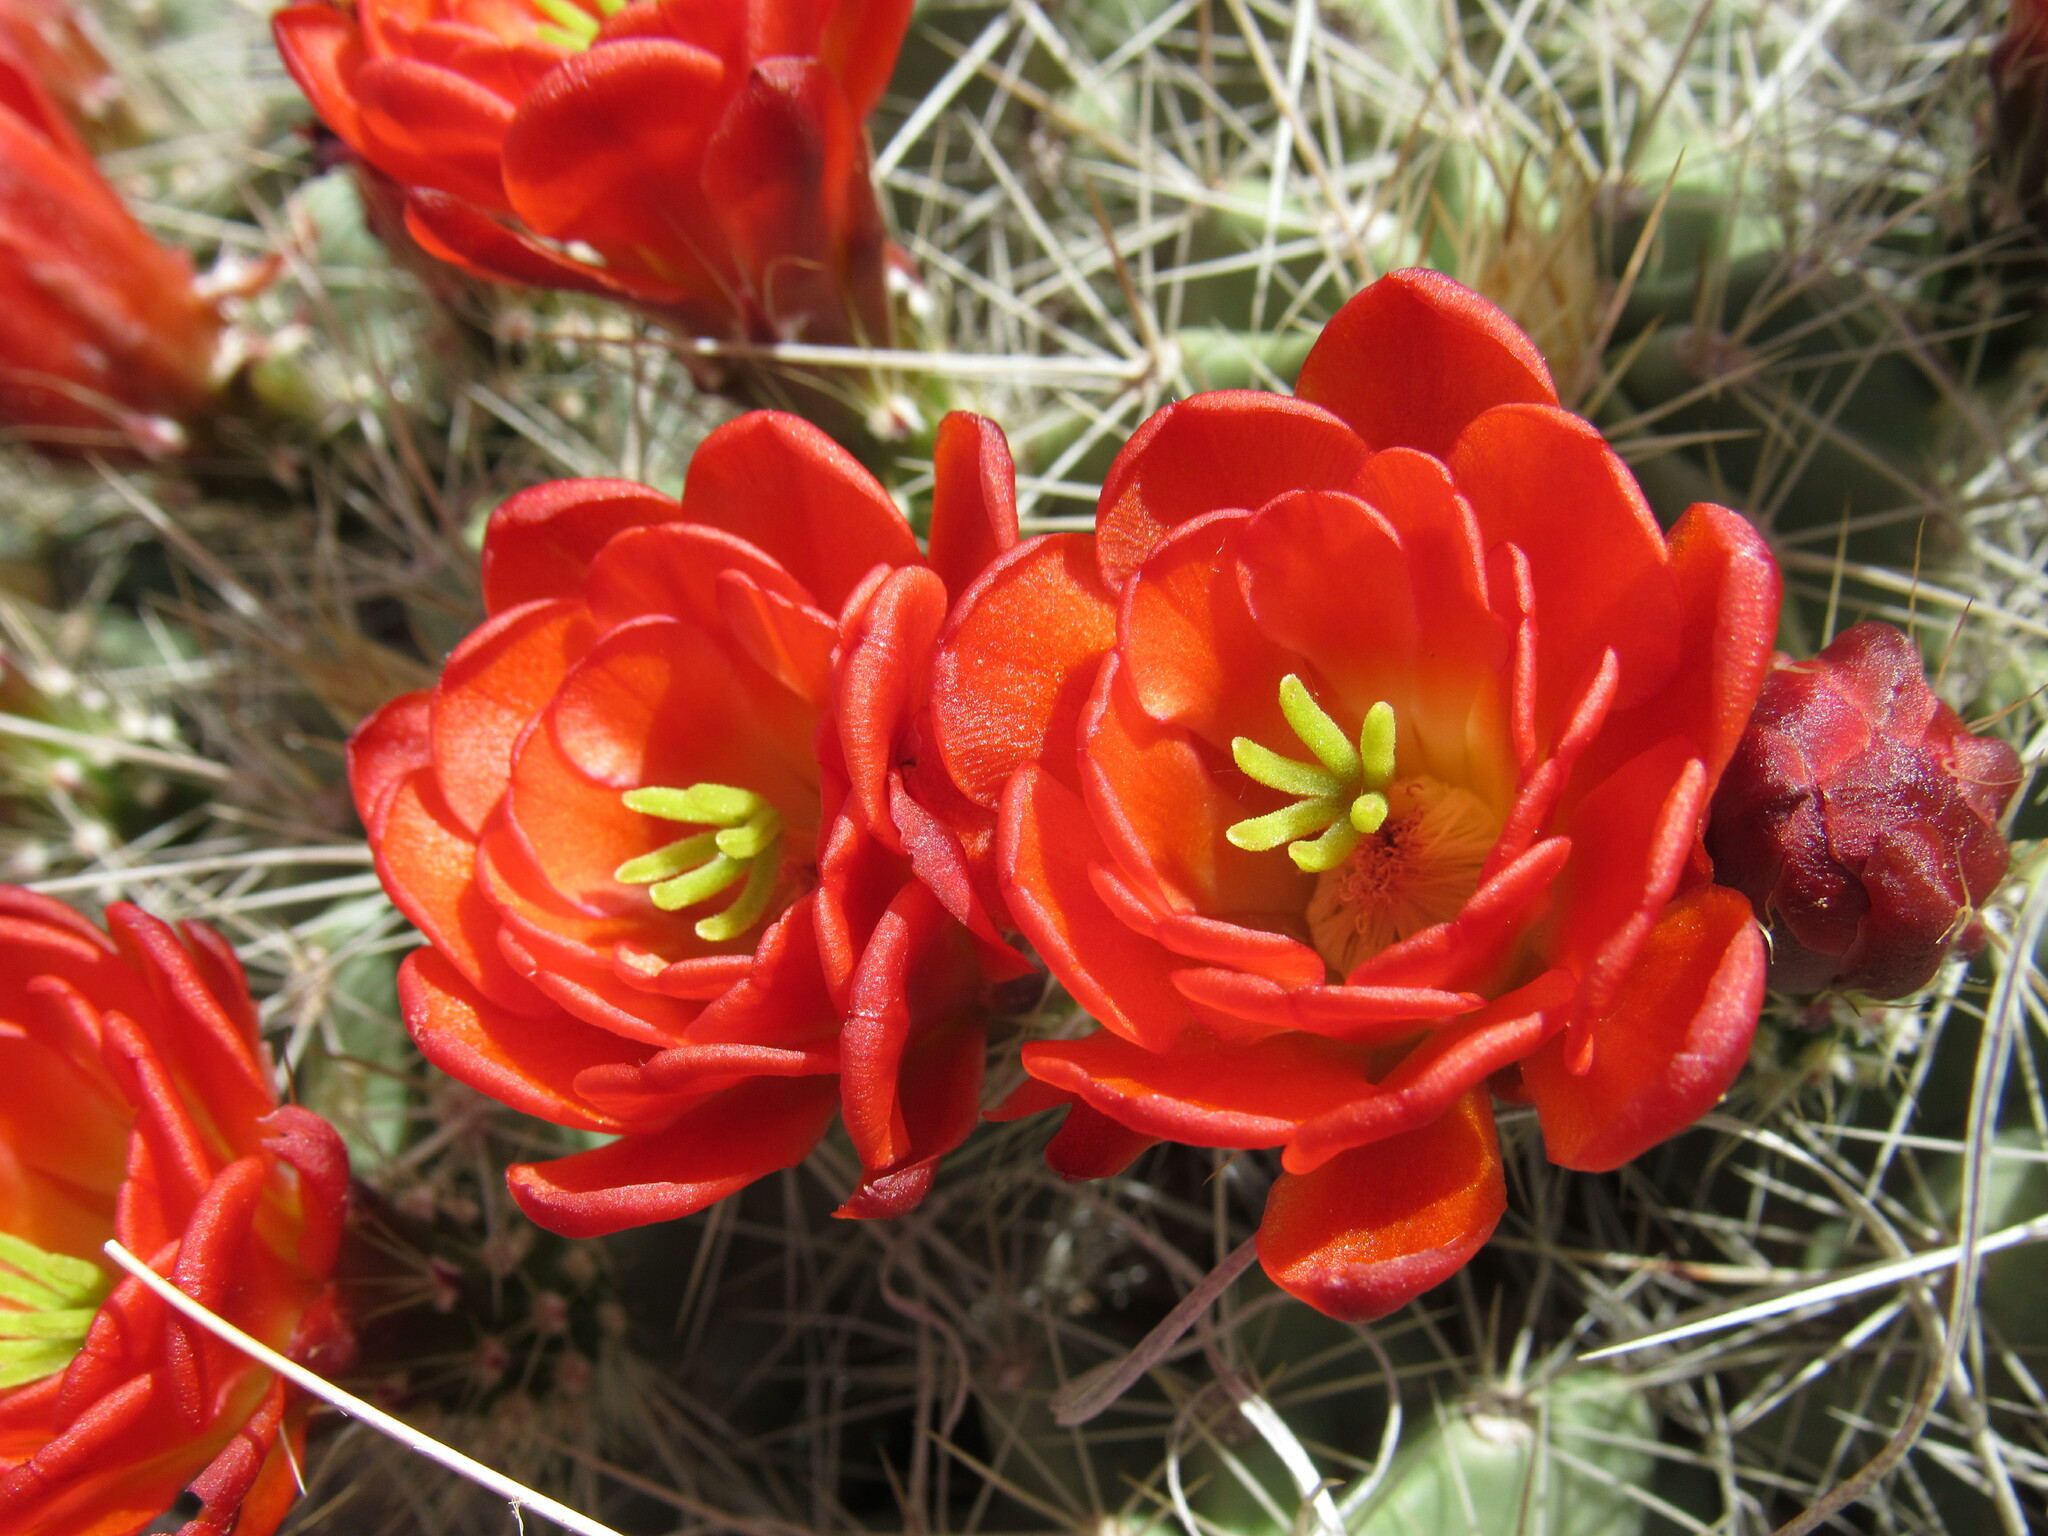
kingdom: Plantae
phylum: Tracheophyta
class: Magnoliopsida
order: Caryophyllales
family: Cactaceae
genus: Echinocereus
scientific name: Echinocereus coccineus
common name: Scarlet hedgehog cactus
